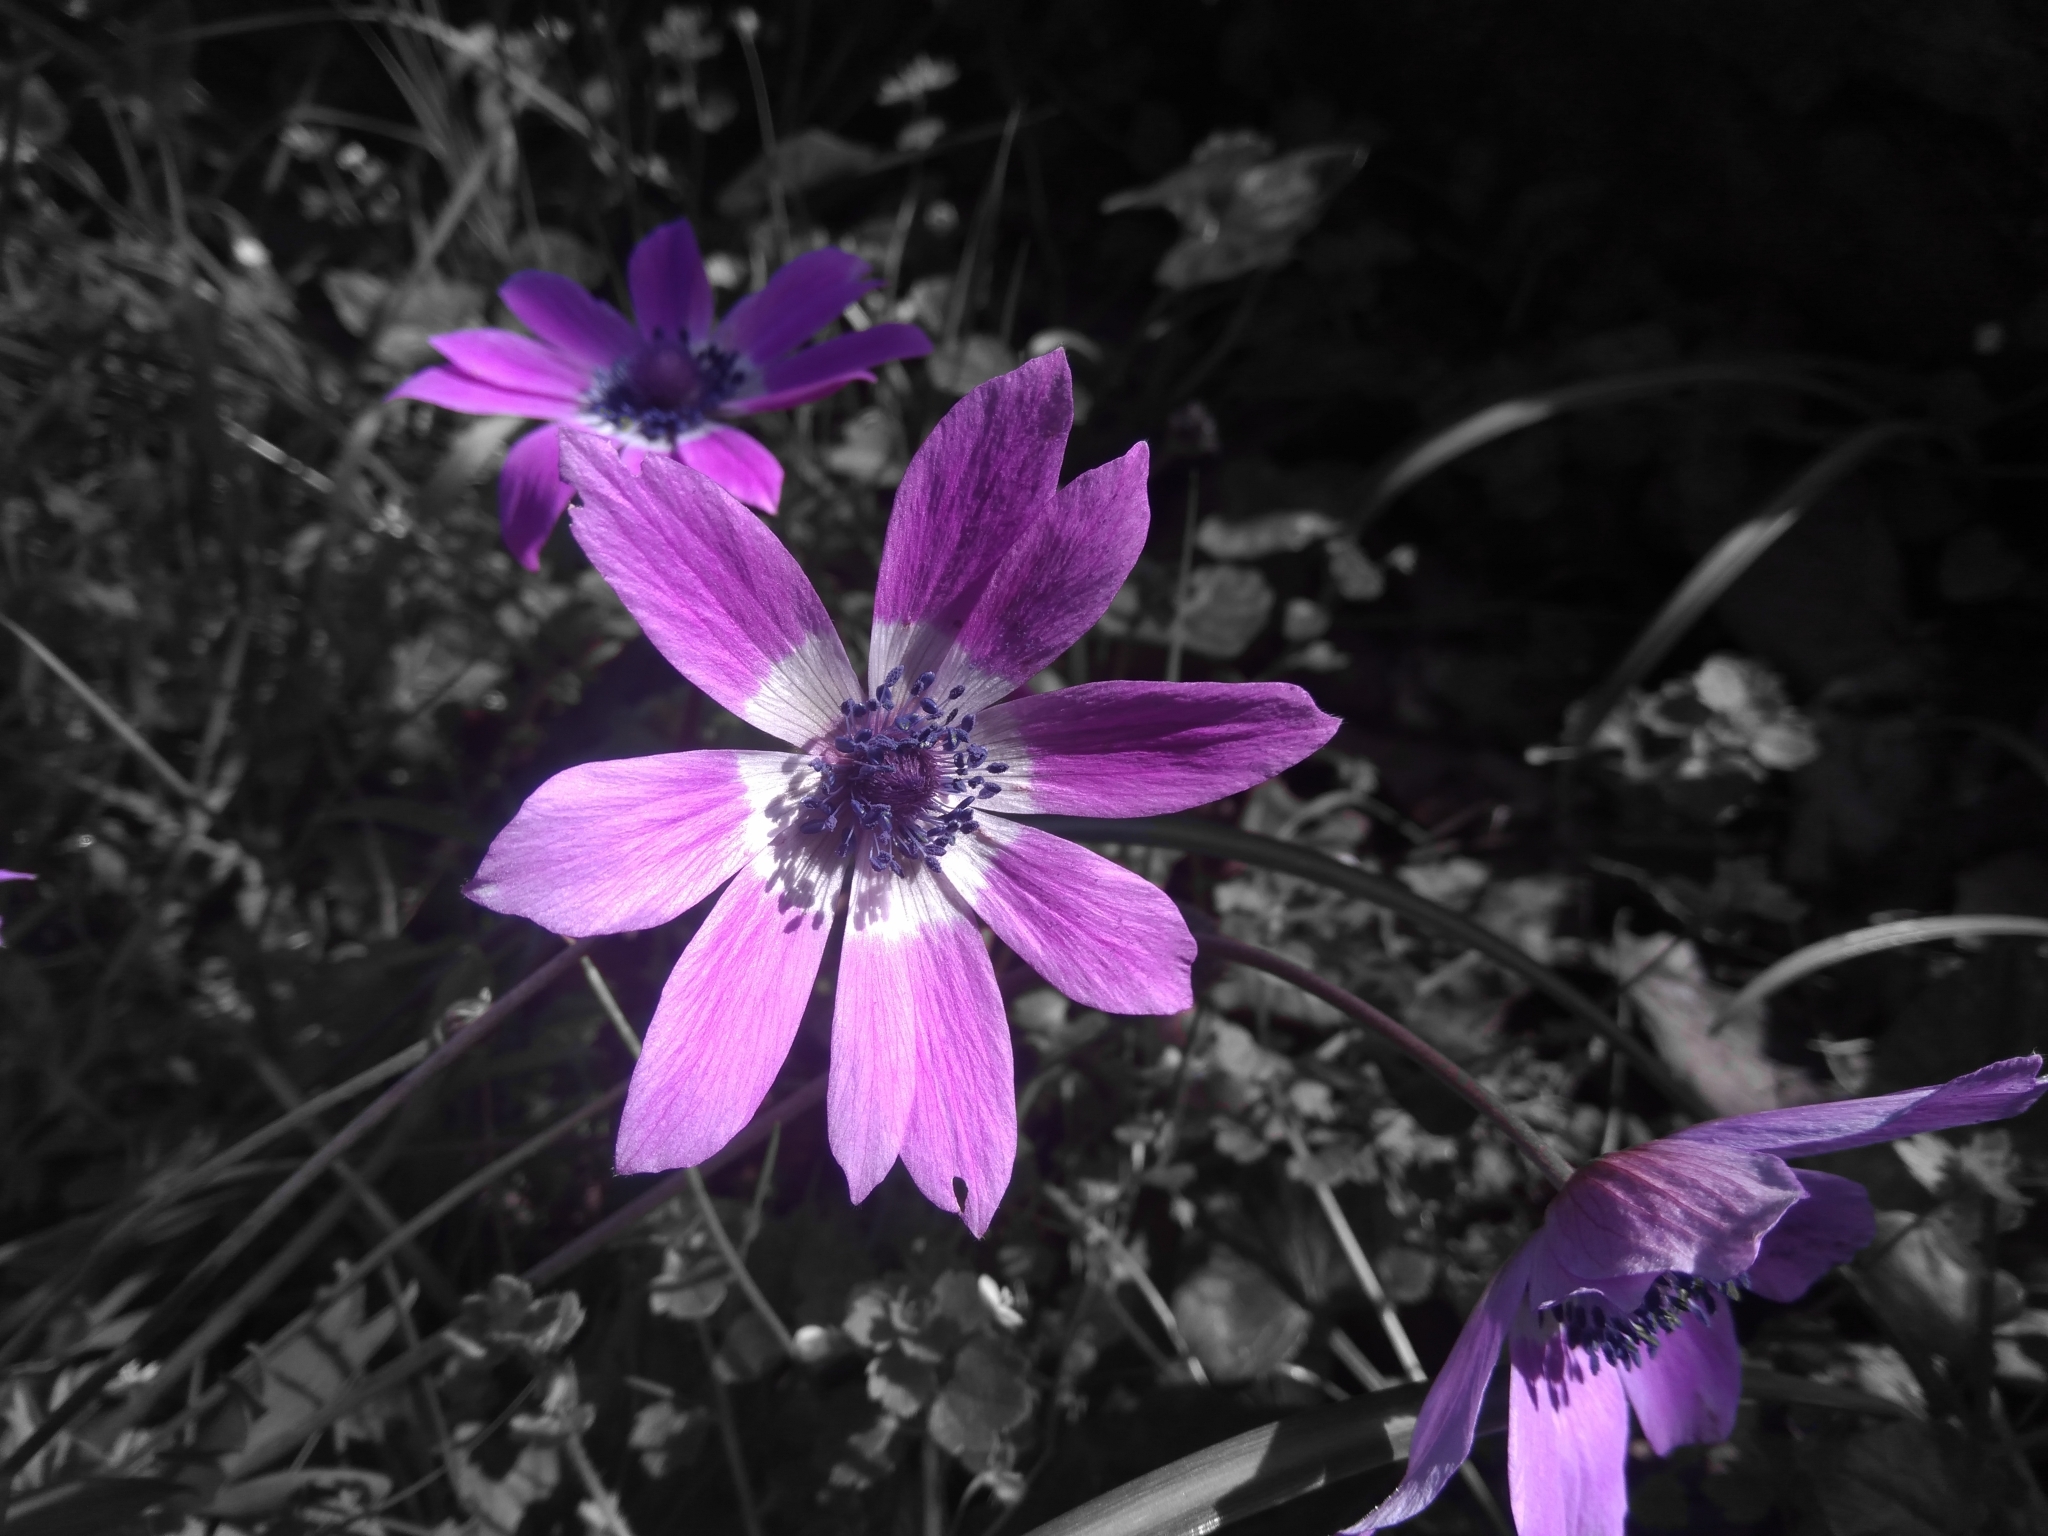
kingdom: Plantae
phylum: Tracheophyta
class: Magnoliopsida
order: Ranunculales
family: Ranunculaceae
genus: Anemone
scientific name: Anemone pavonina
